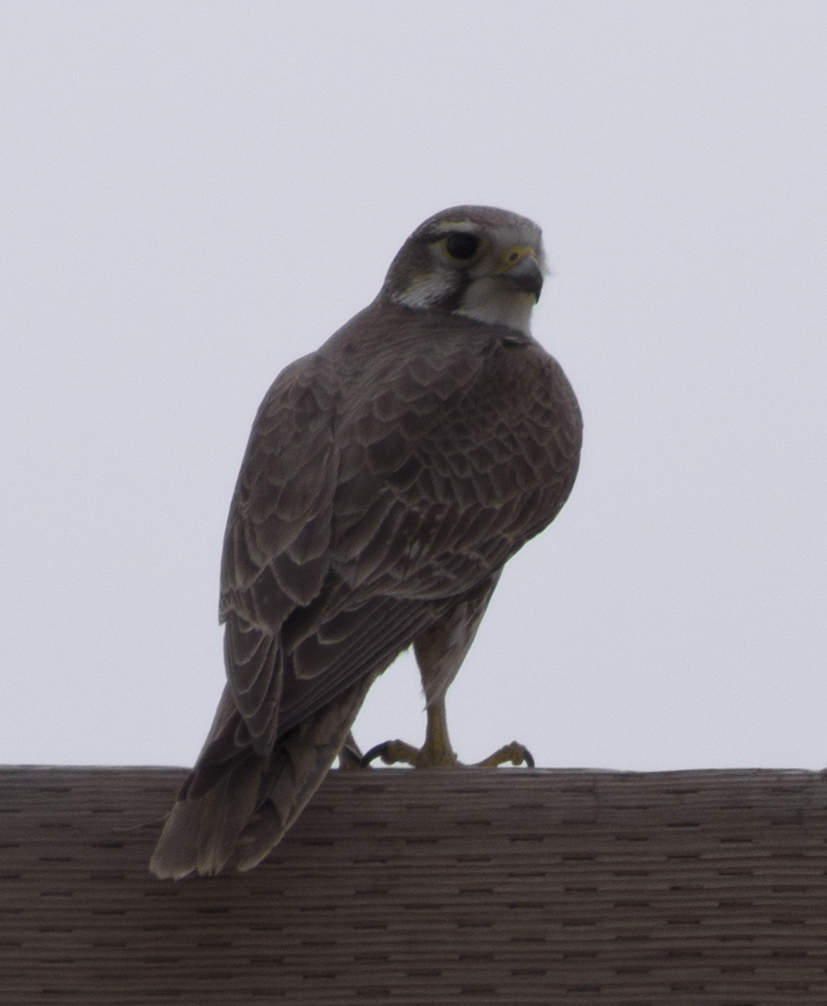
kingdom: Animalia
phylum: Chordata
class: Aves
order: Falconiformes
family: Falconidae
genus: Falco
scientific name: Falco mexicanus
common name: Prairie falcon
